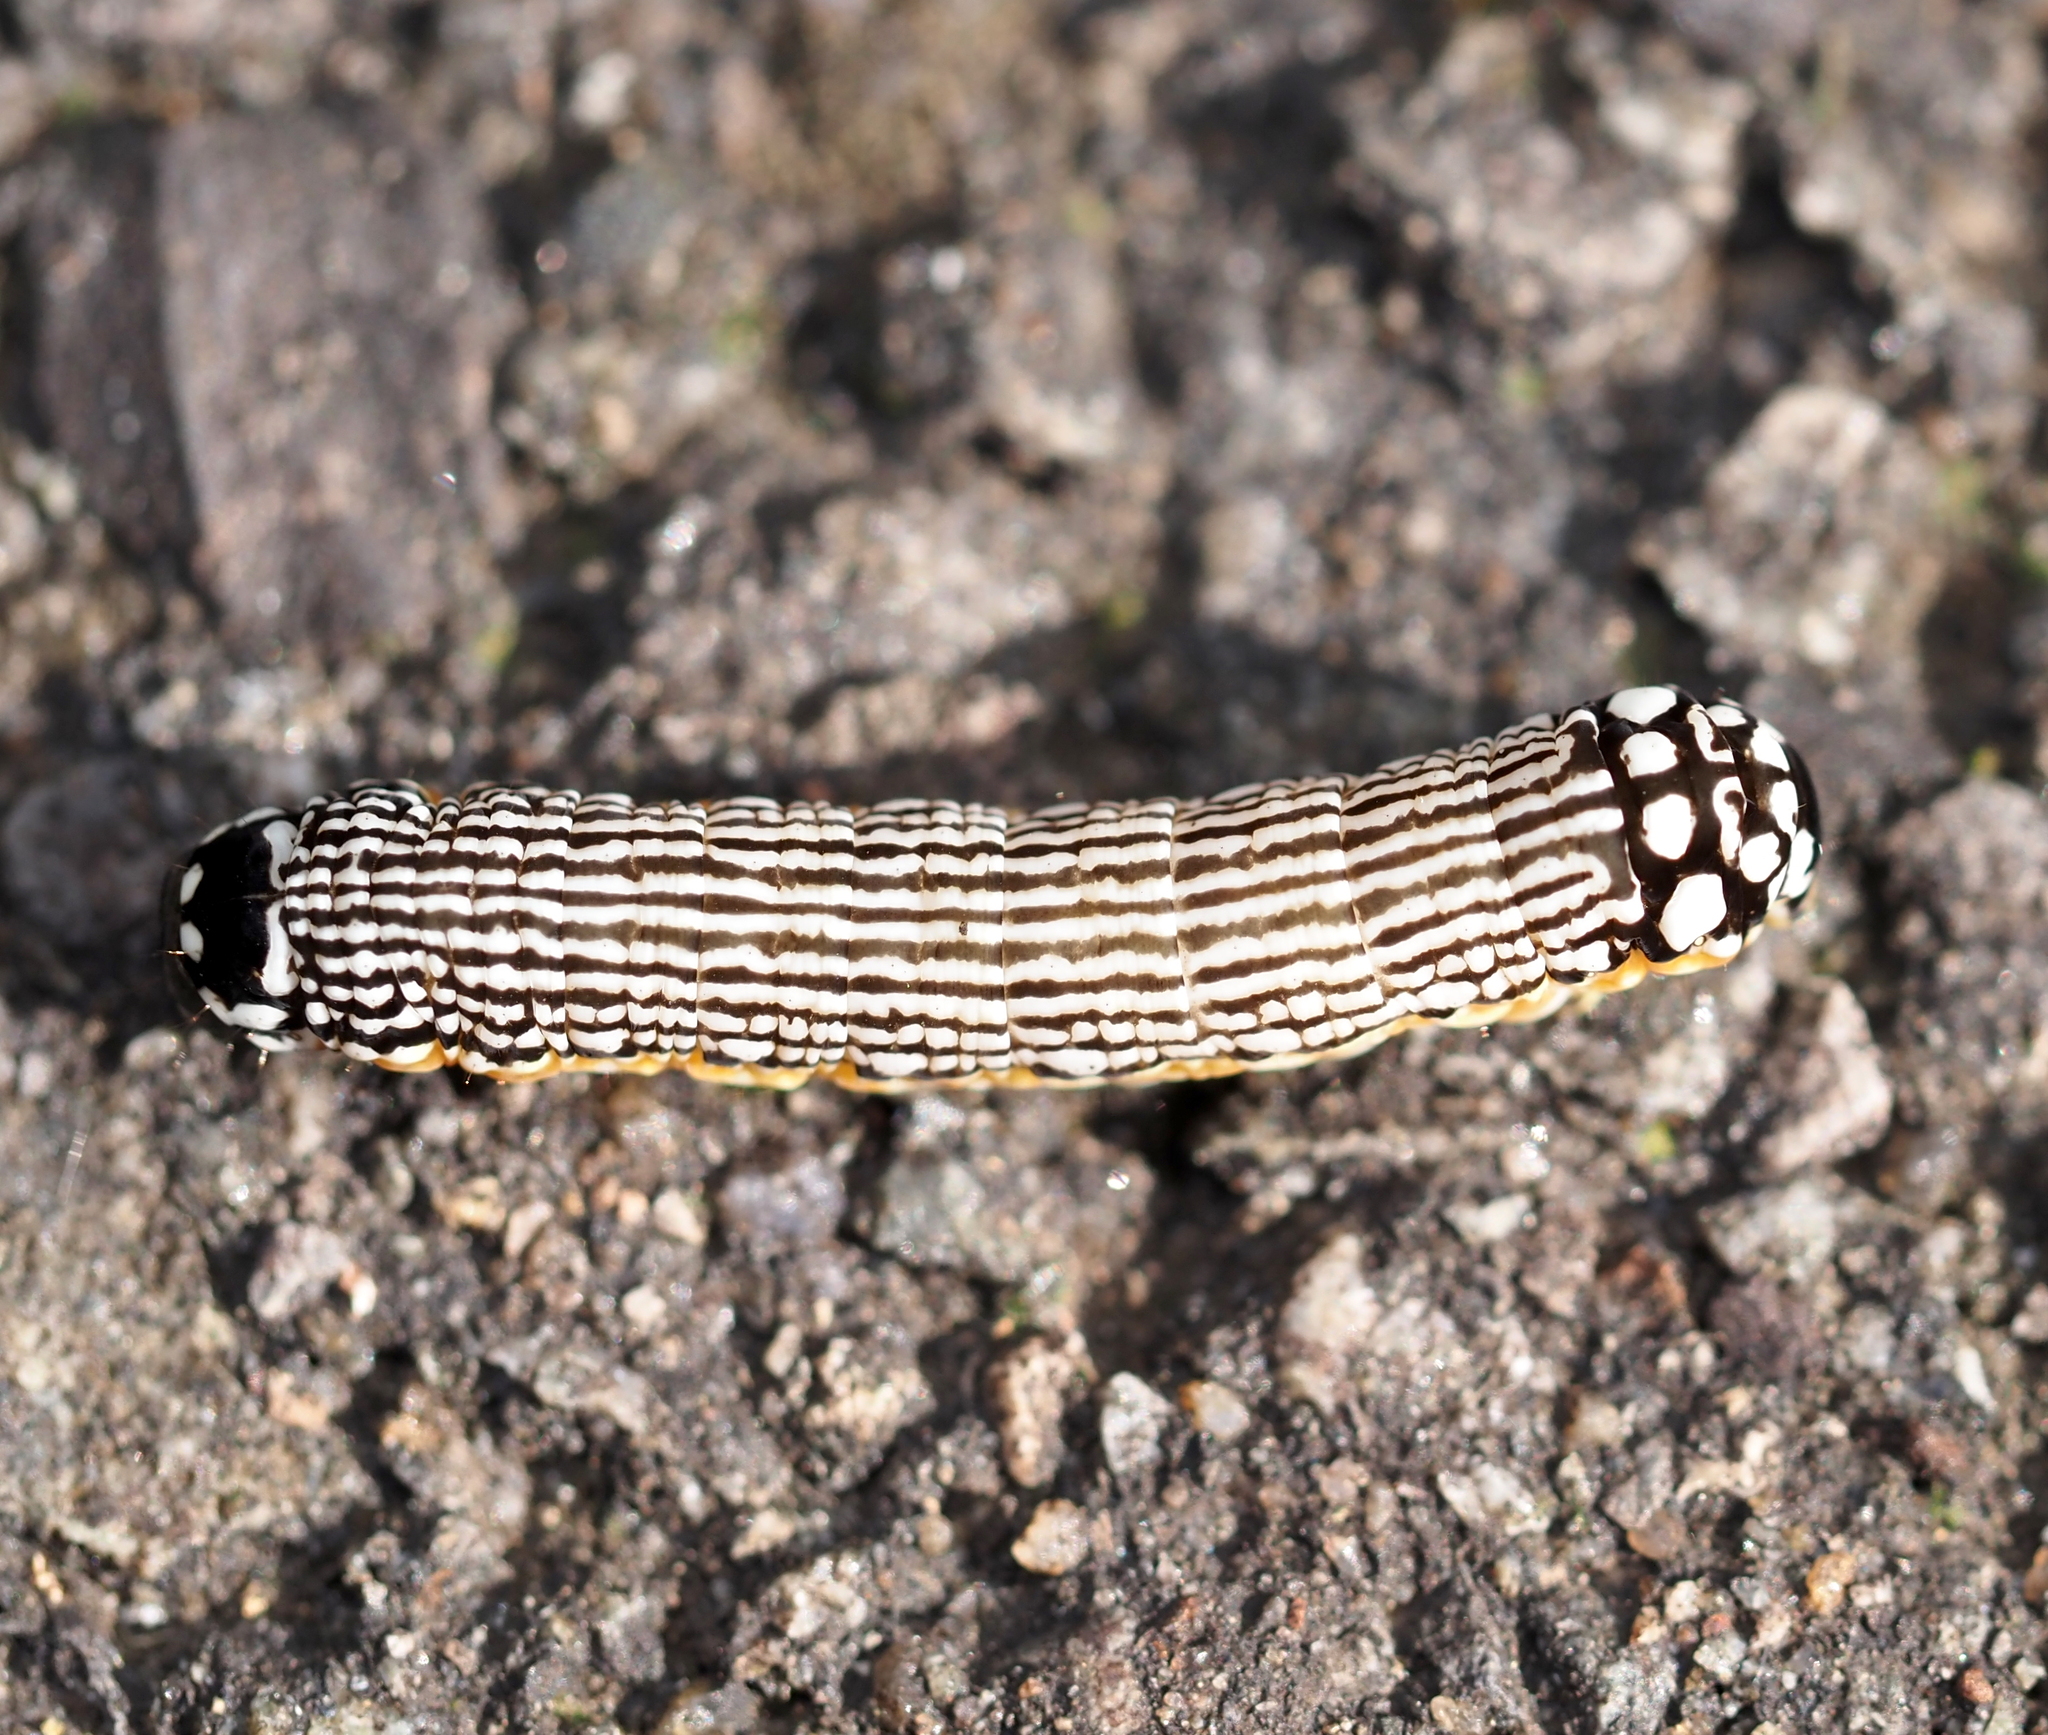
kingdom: Animalia
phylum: Arthropoda
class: Insecta
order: Lepidoptera
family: Noctuidae
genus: Phosphila
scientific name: Phosphila turbulenta
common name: Turbulent phosphila moth
